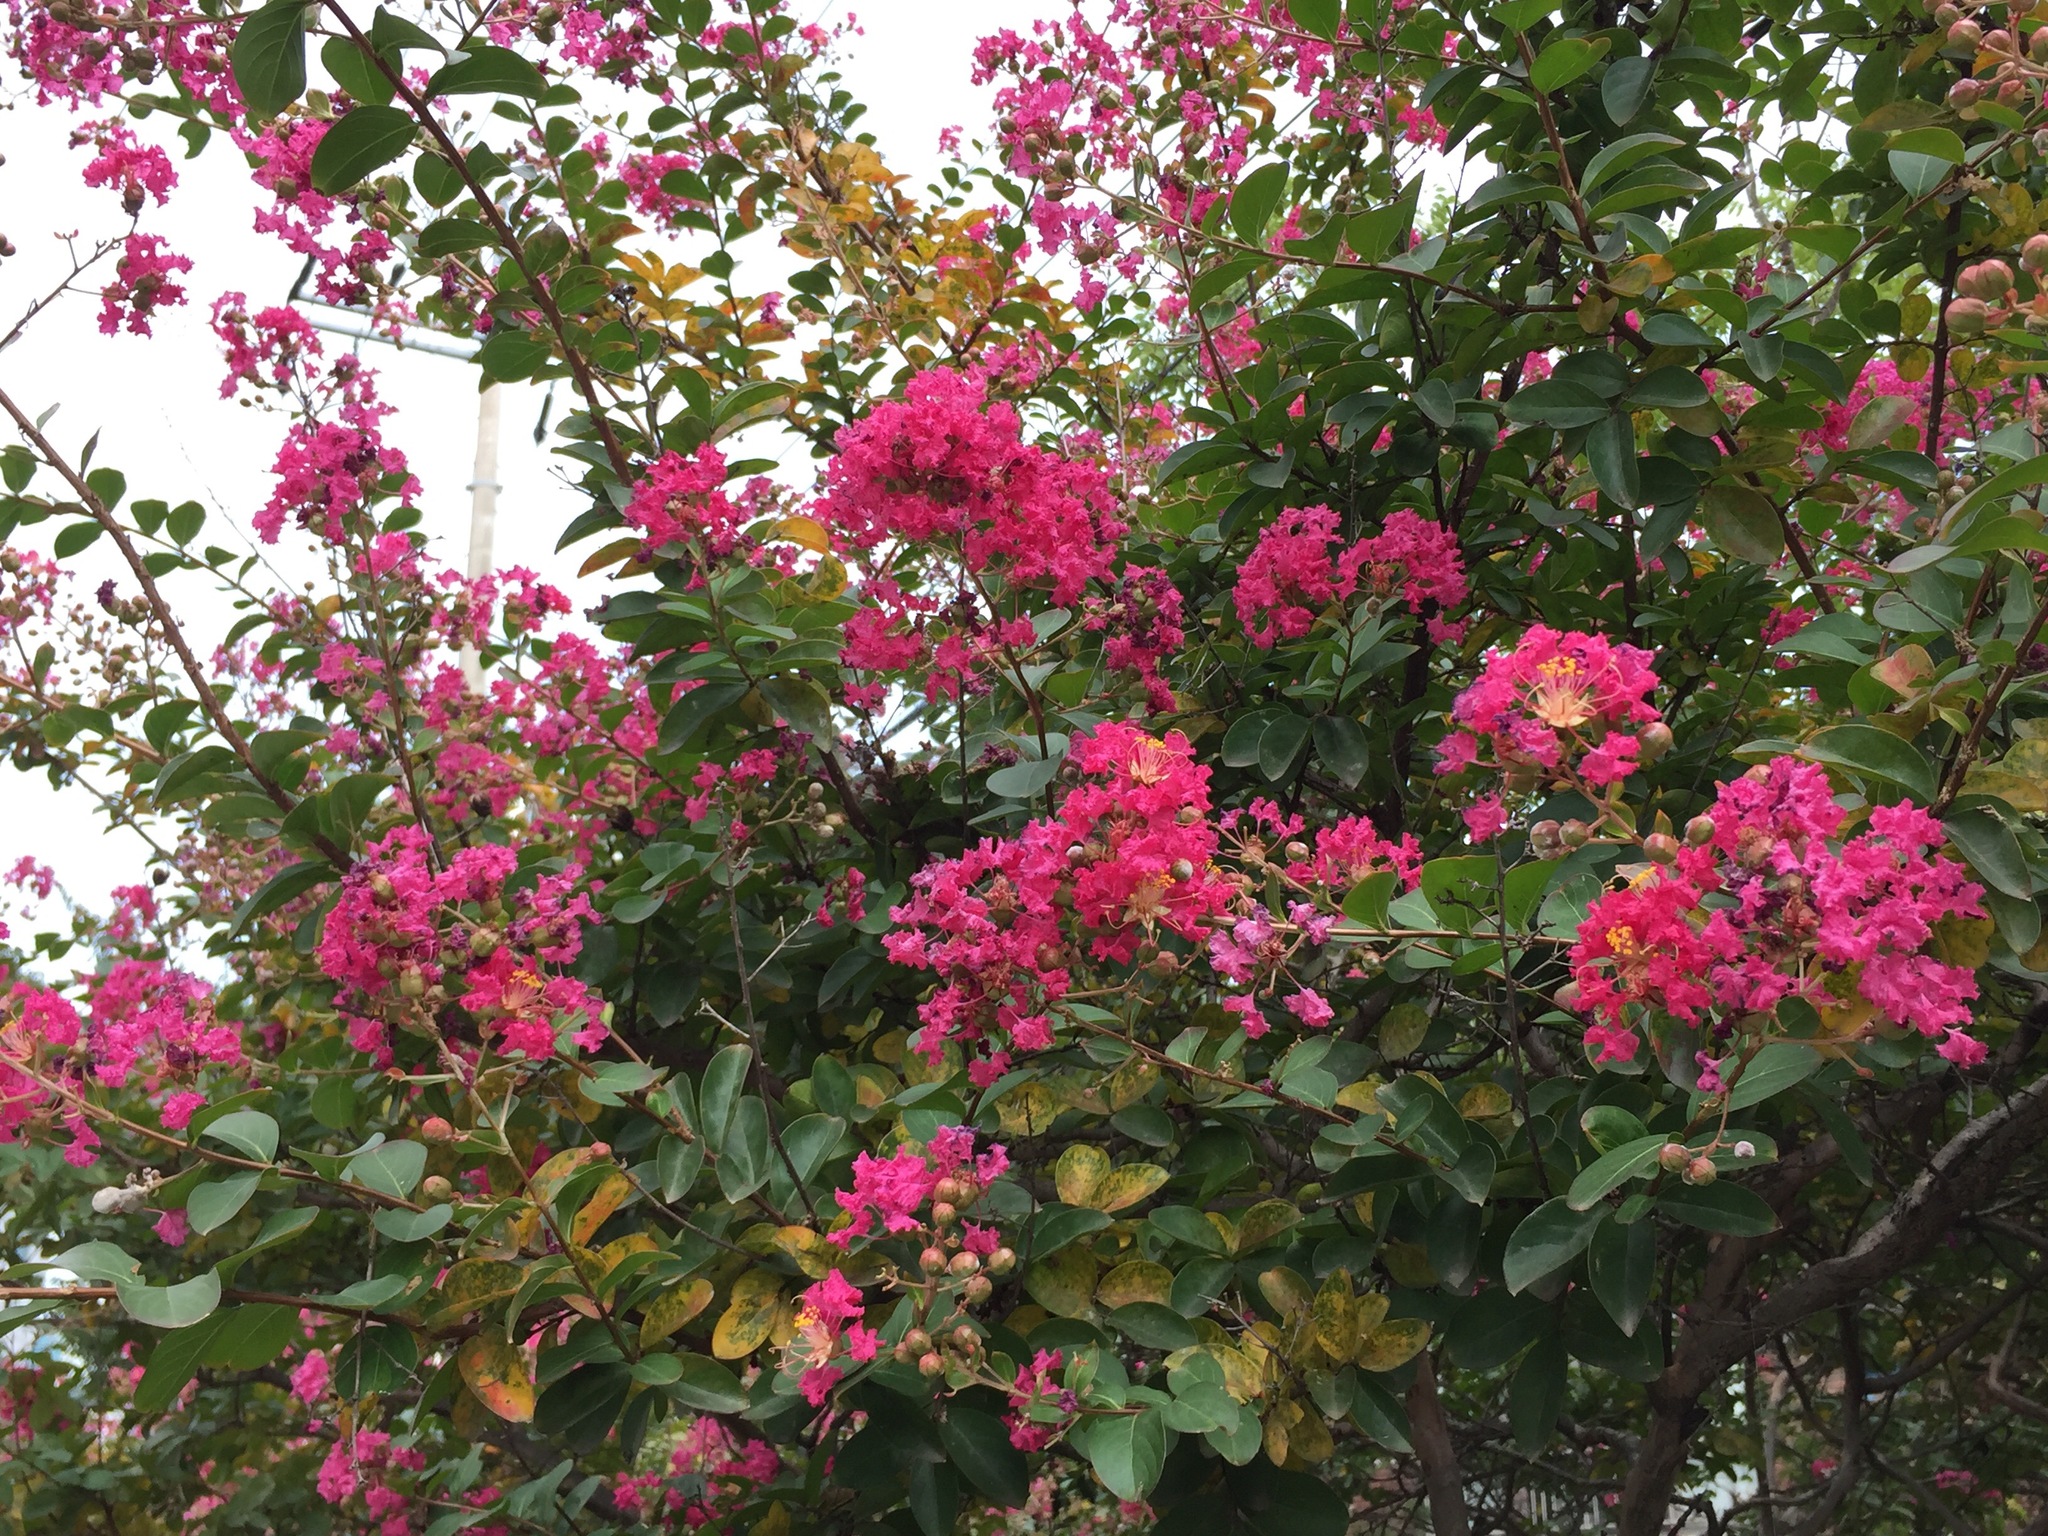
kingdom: Plantae
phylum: Tracheophyta
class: Magnoliopsida
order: Myrtales
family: Lythraceae
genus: Lagerstroemia
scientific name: Lagerstroemia indica
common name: Crape-myrtle
